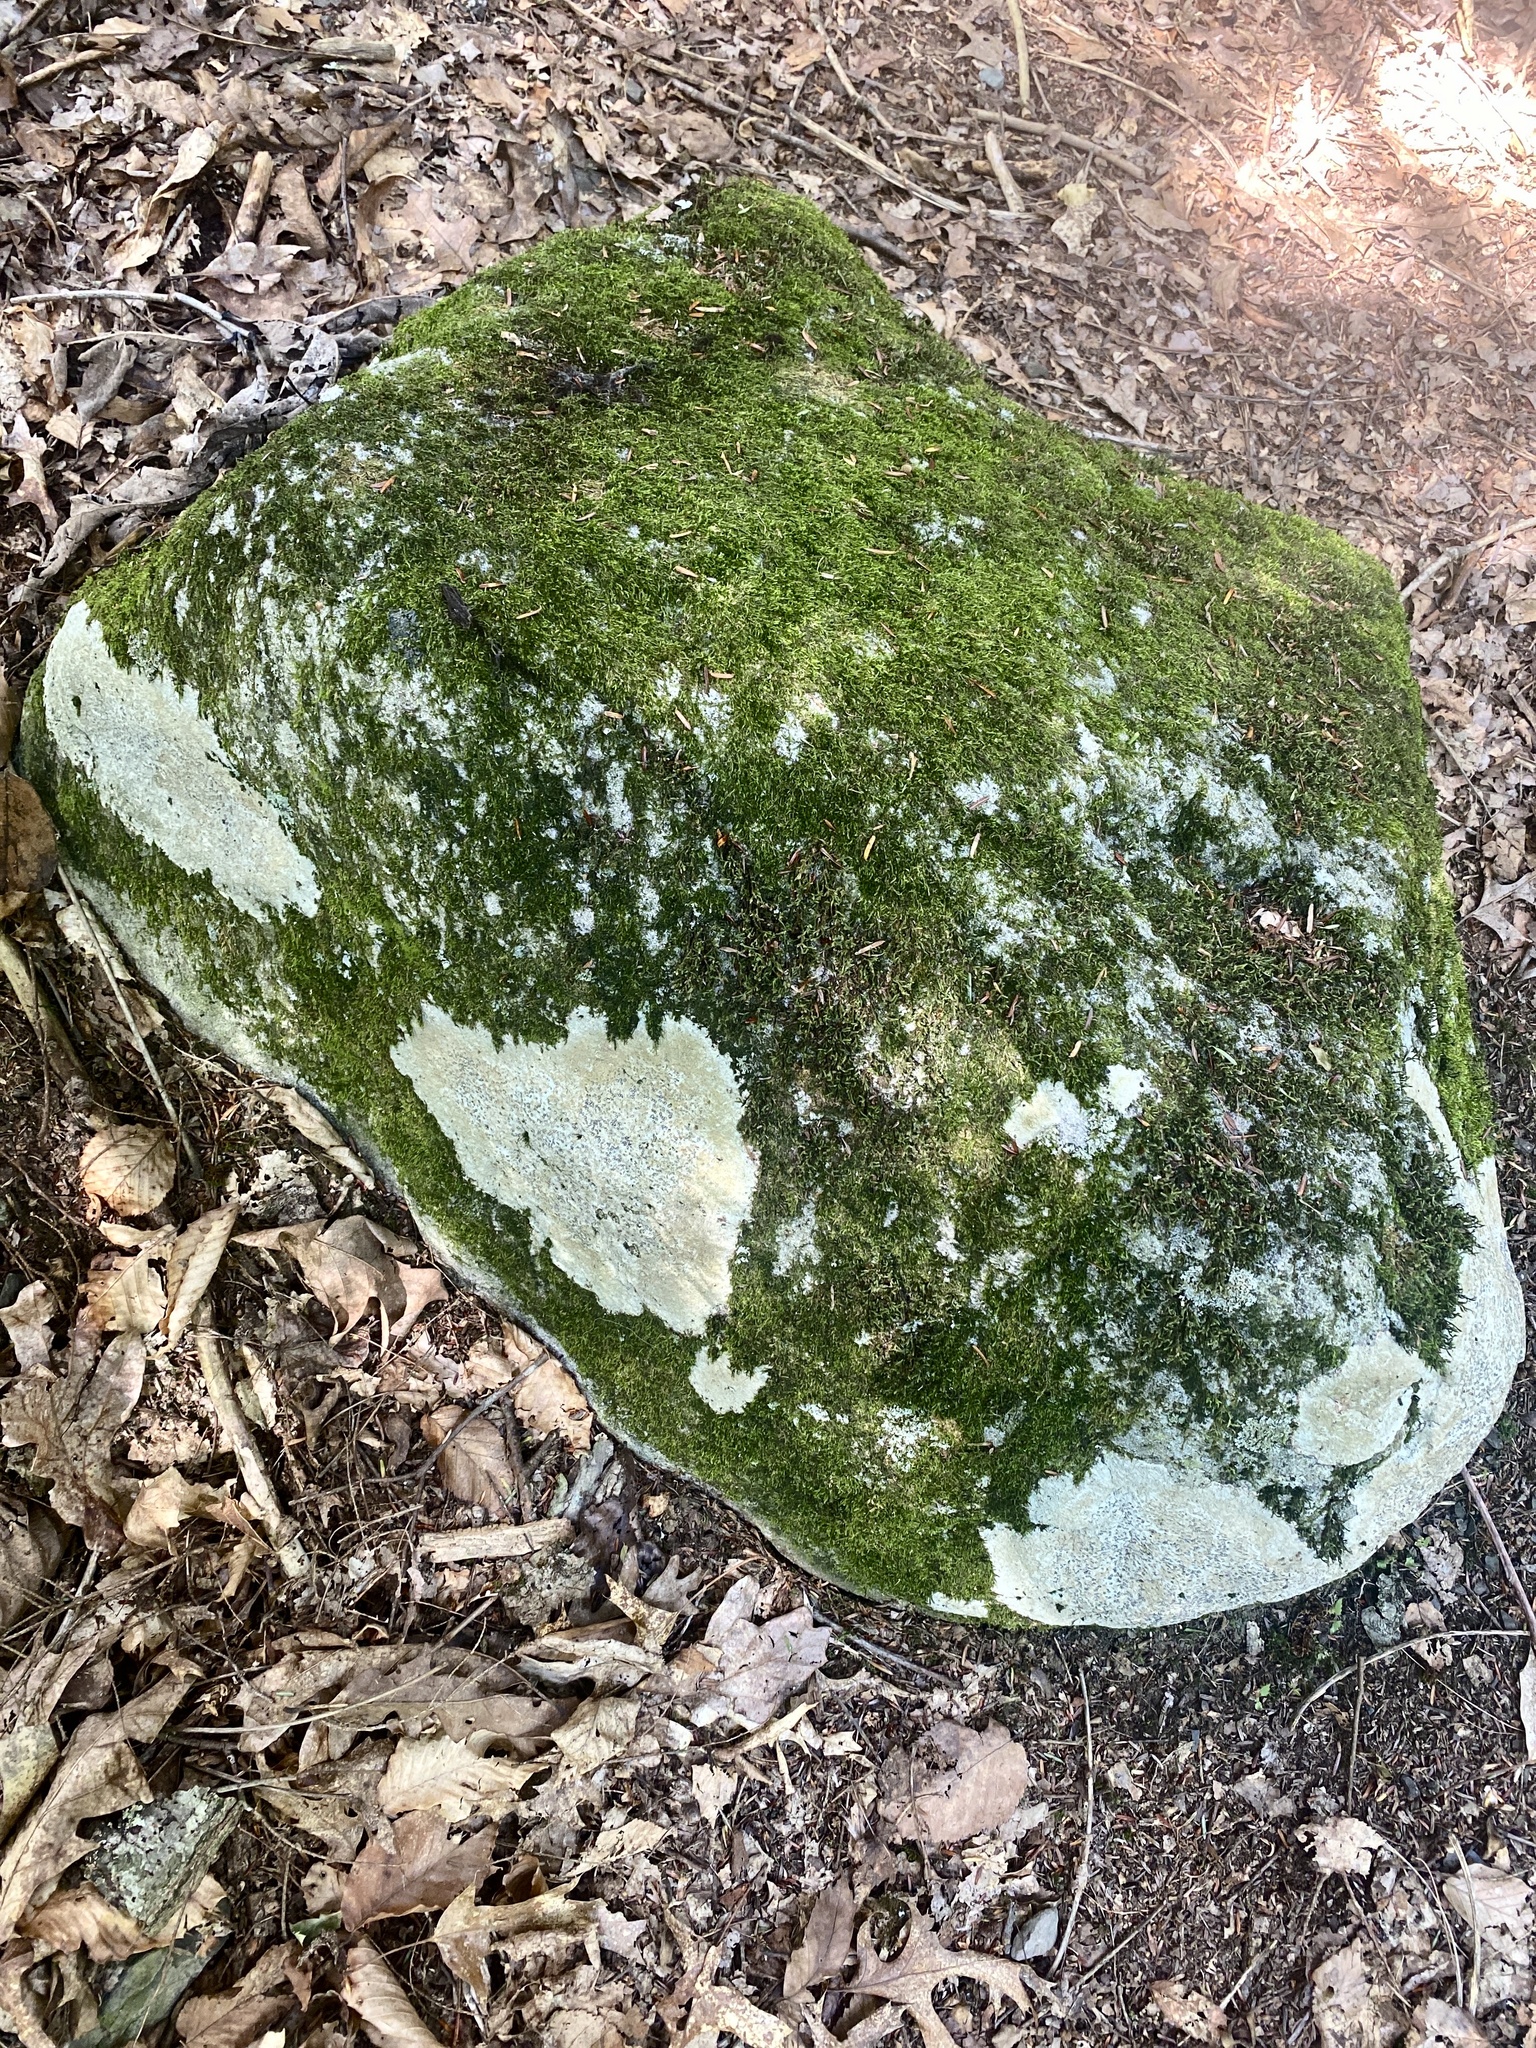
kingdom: Fungi
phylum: Ascomycota
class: Lecanoromycetes
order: Lecideales
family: Lecideaceae
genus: Porpidia
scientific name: Porpidia albocaerulescens
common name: Smokey-eyed boulder lichen
